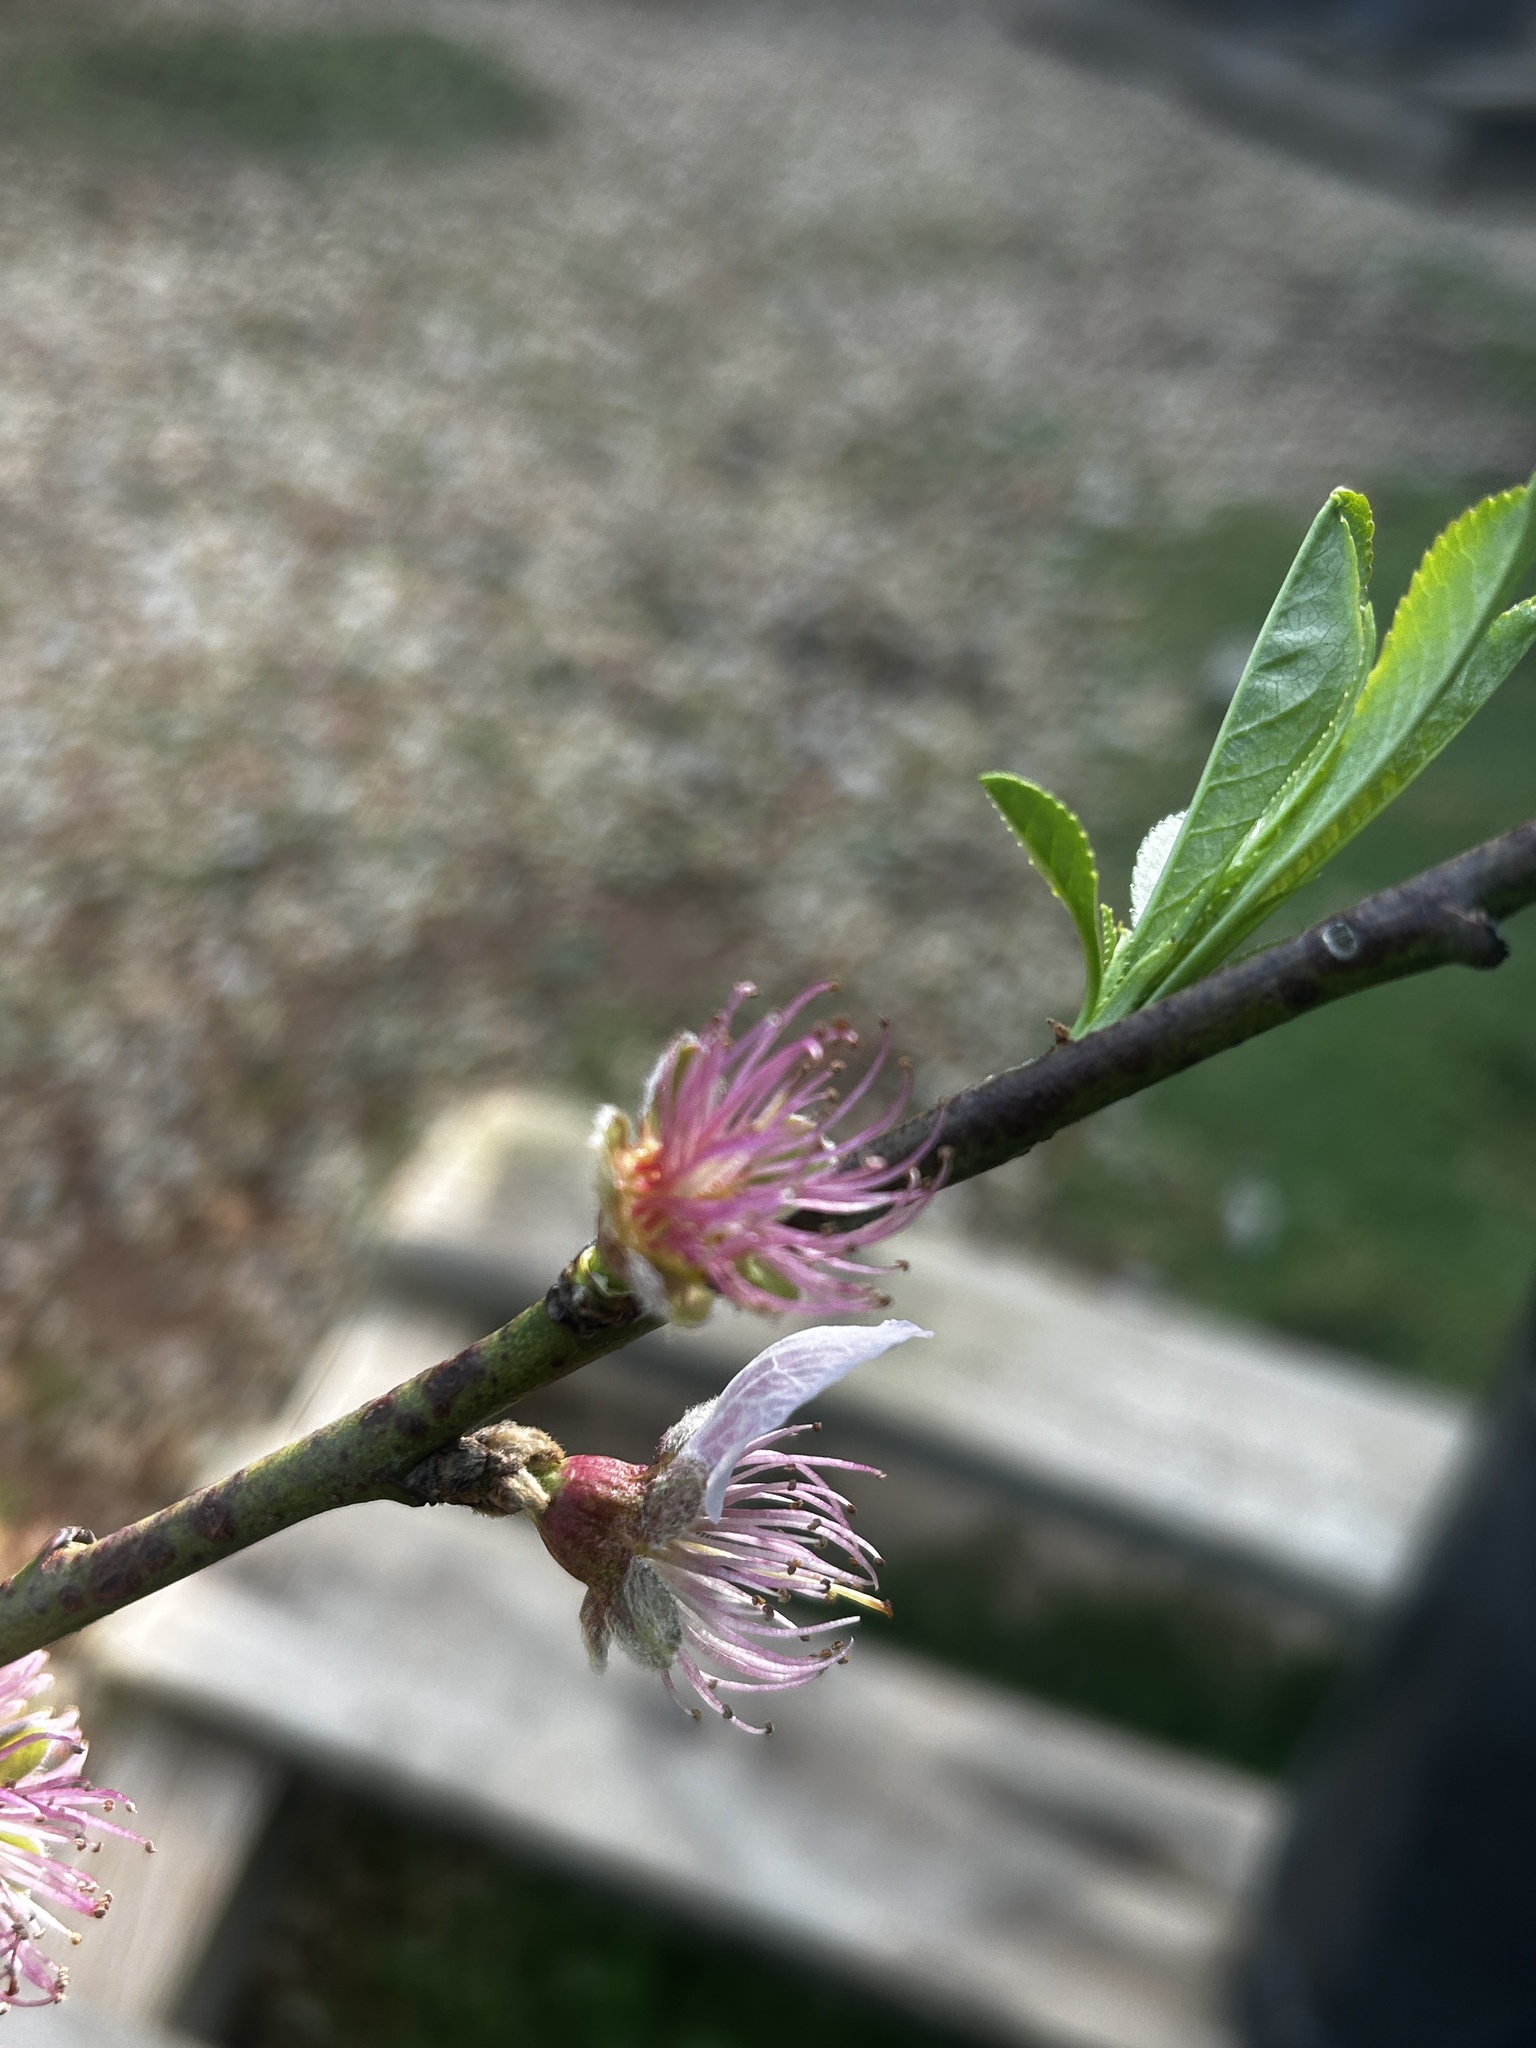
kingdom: Plantae
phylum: Tracheophyta
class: Magnoliopsida
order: Rosales
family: Rosaceae
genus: Prunus
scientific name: Prunus persica
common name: Peach
